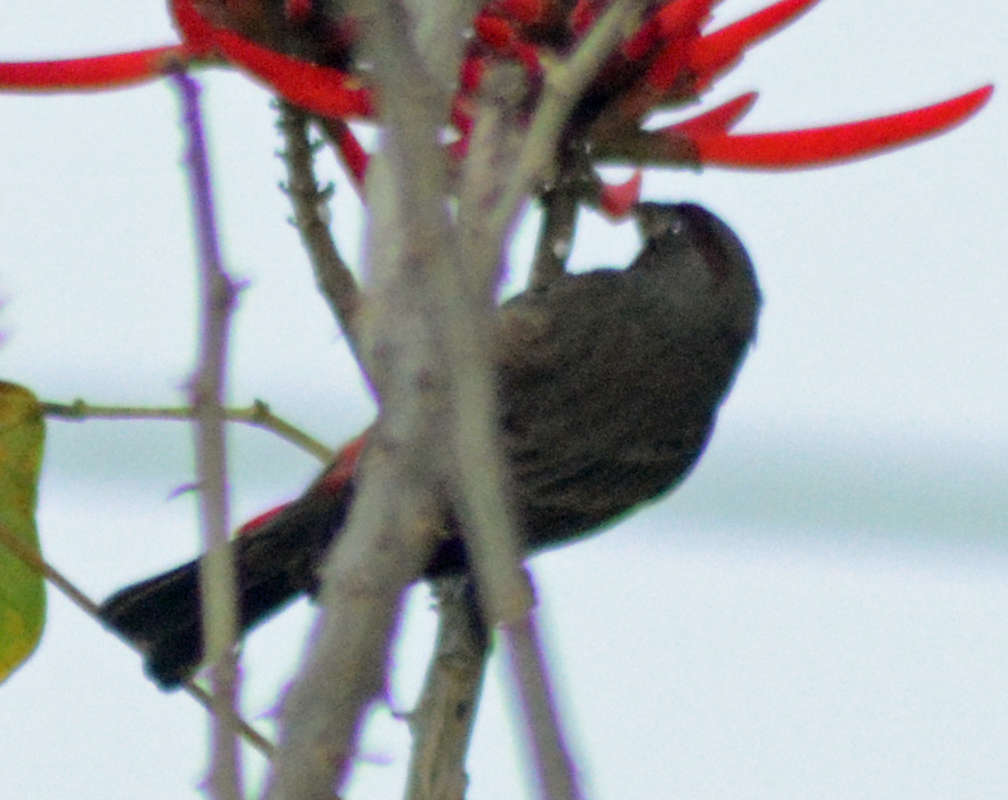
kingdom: Animalia
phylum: Chordata
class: Aves
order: Passeriformes
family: Fringillidae
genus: Haemorhous
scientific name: Haemorhous mexicanus
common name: House finch
